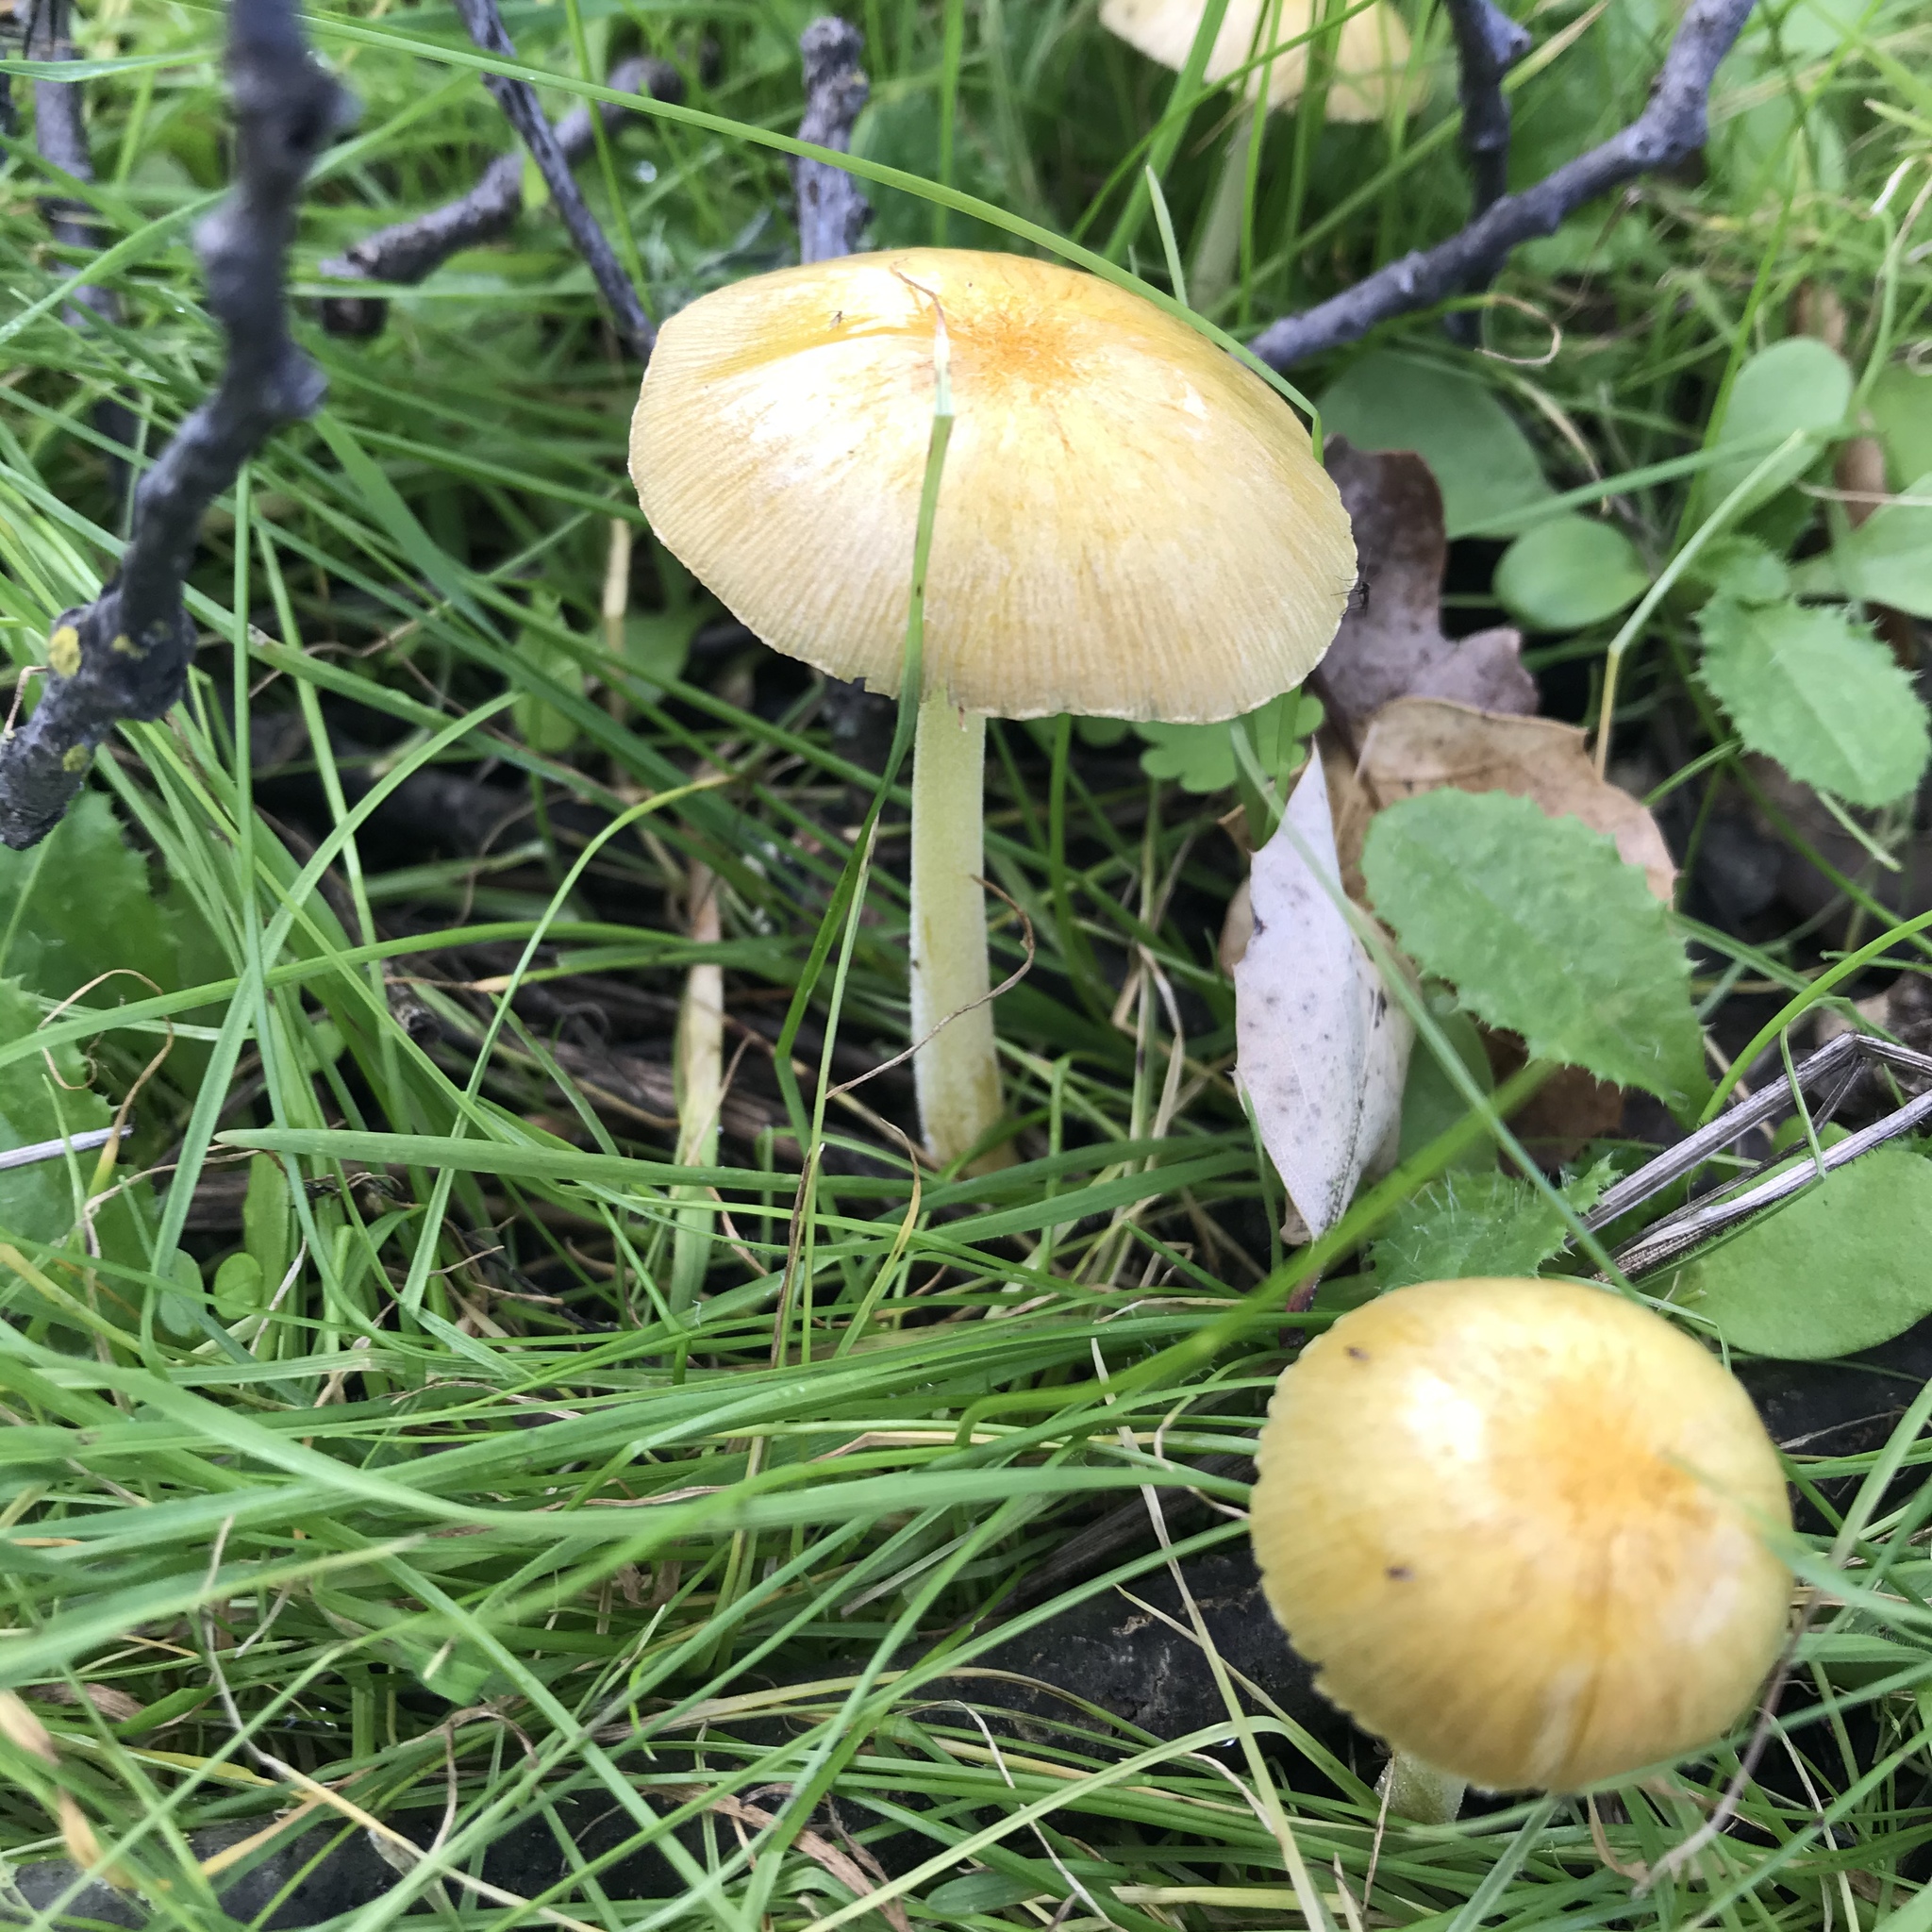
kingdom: Fungi
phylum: Basidiomycota
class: Agaricomycetes
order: Agaricales
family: Bolbitiaceae
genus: Bolbitius
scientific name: Bolbitius titubans
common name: Yellow fieldcap
